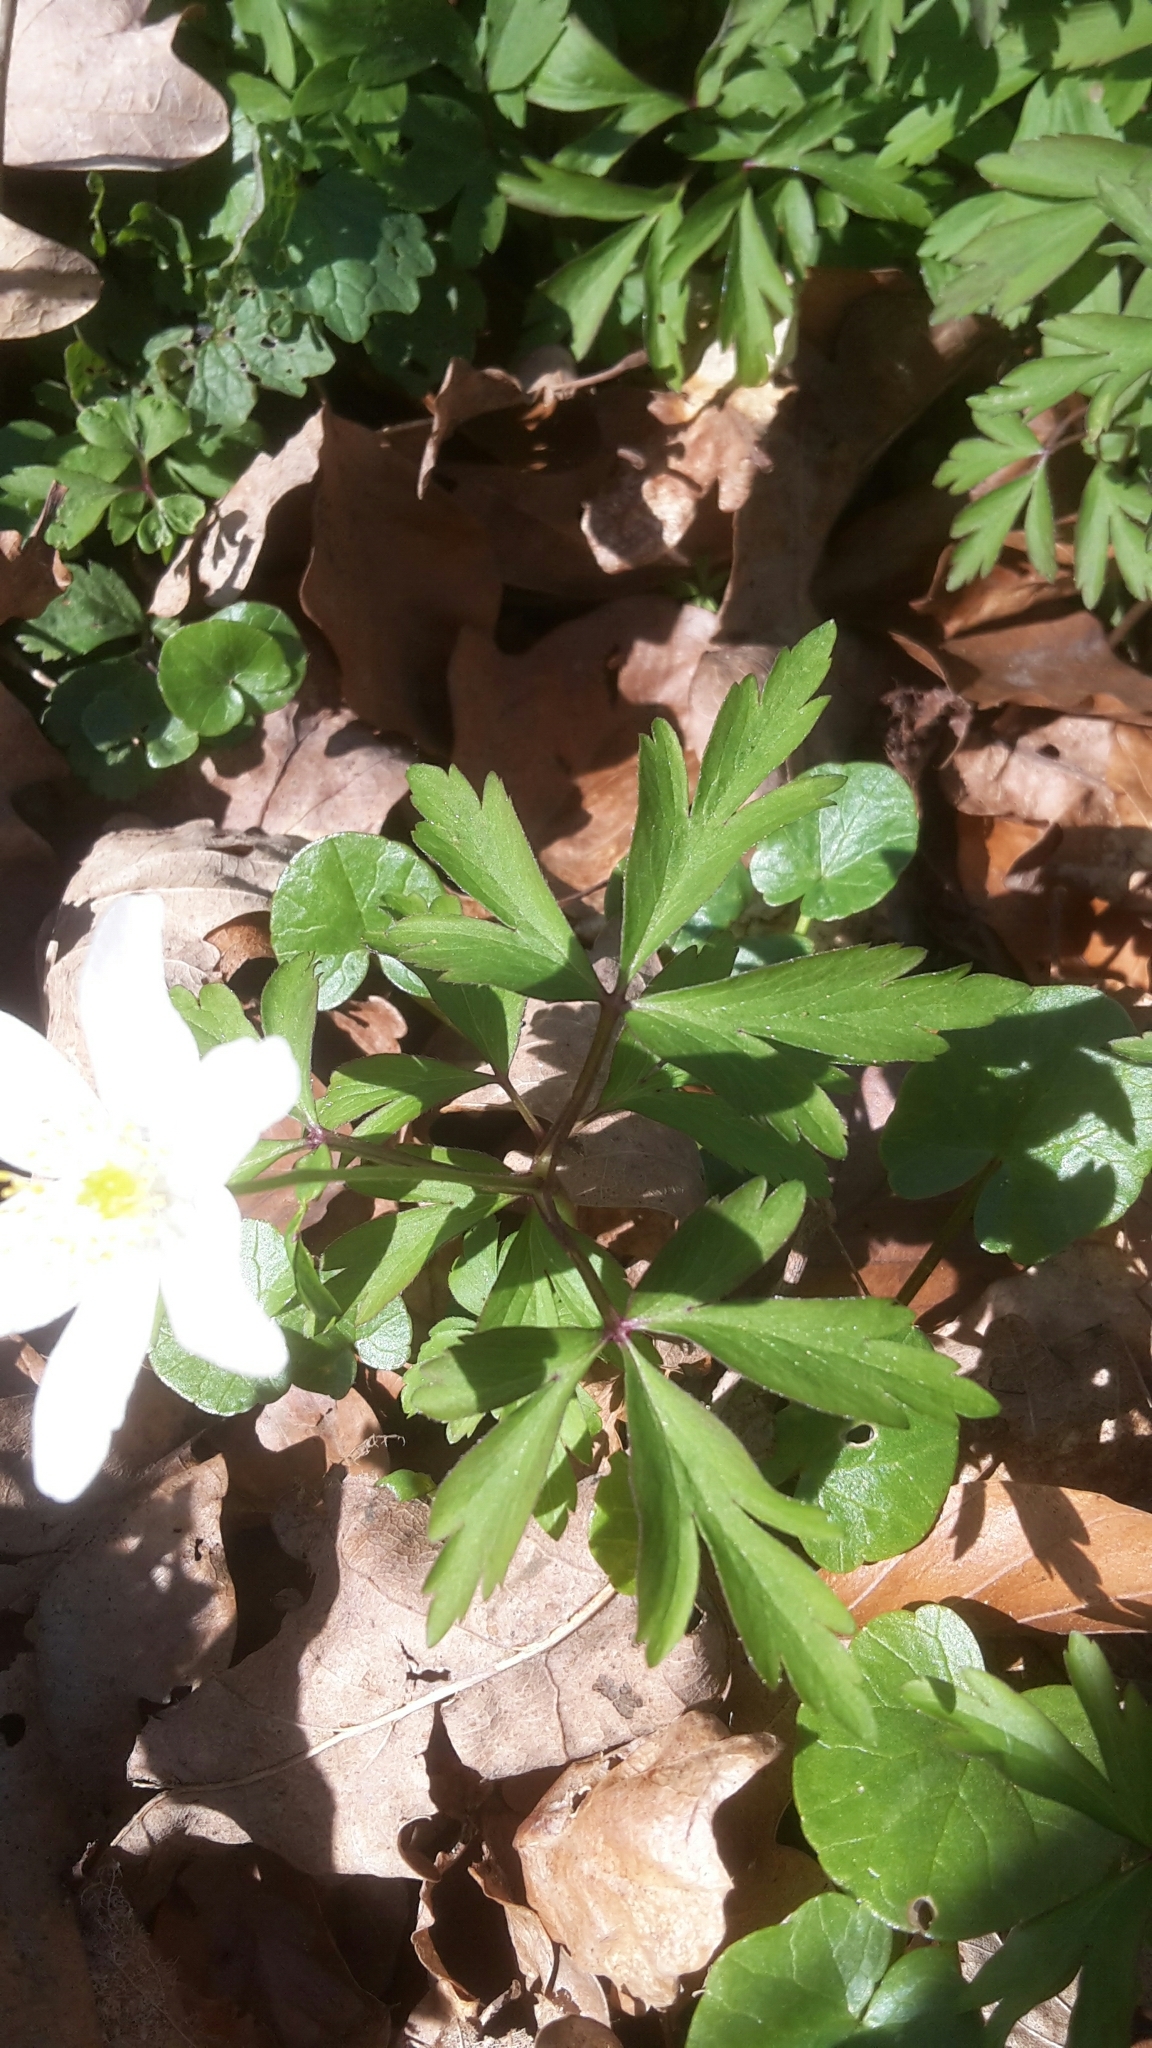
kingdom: Plantae
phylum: Tracheophyta
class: Magnoliopsida
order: Ranunculales
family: Ranunculaceae
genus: Anemone
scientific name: Anemone nemorosa
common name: Wood anemone
